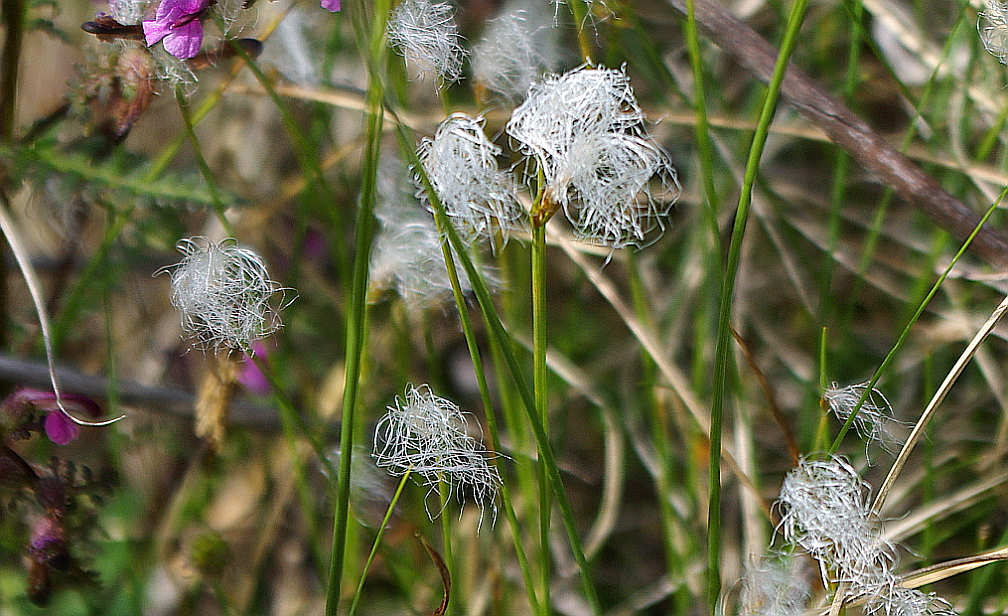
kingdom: Plantae
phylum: Tracheophyta
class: Liliopsida
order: Poales
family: Cyperaceae
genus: Trichophorum
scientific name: Trichophorum alpinum
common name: Alpine bulrush
